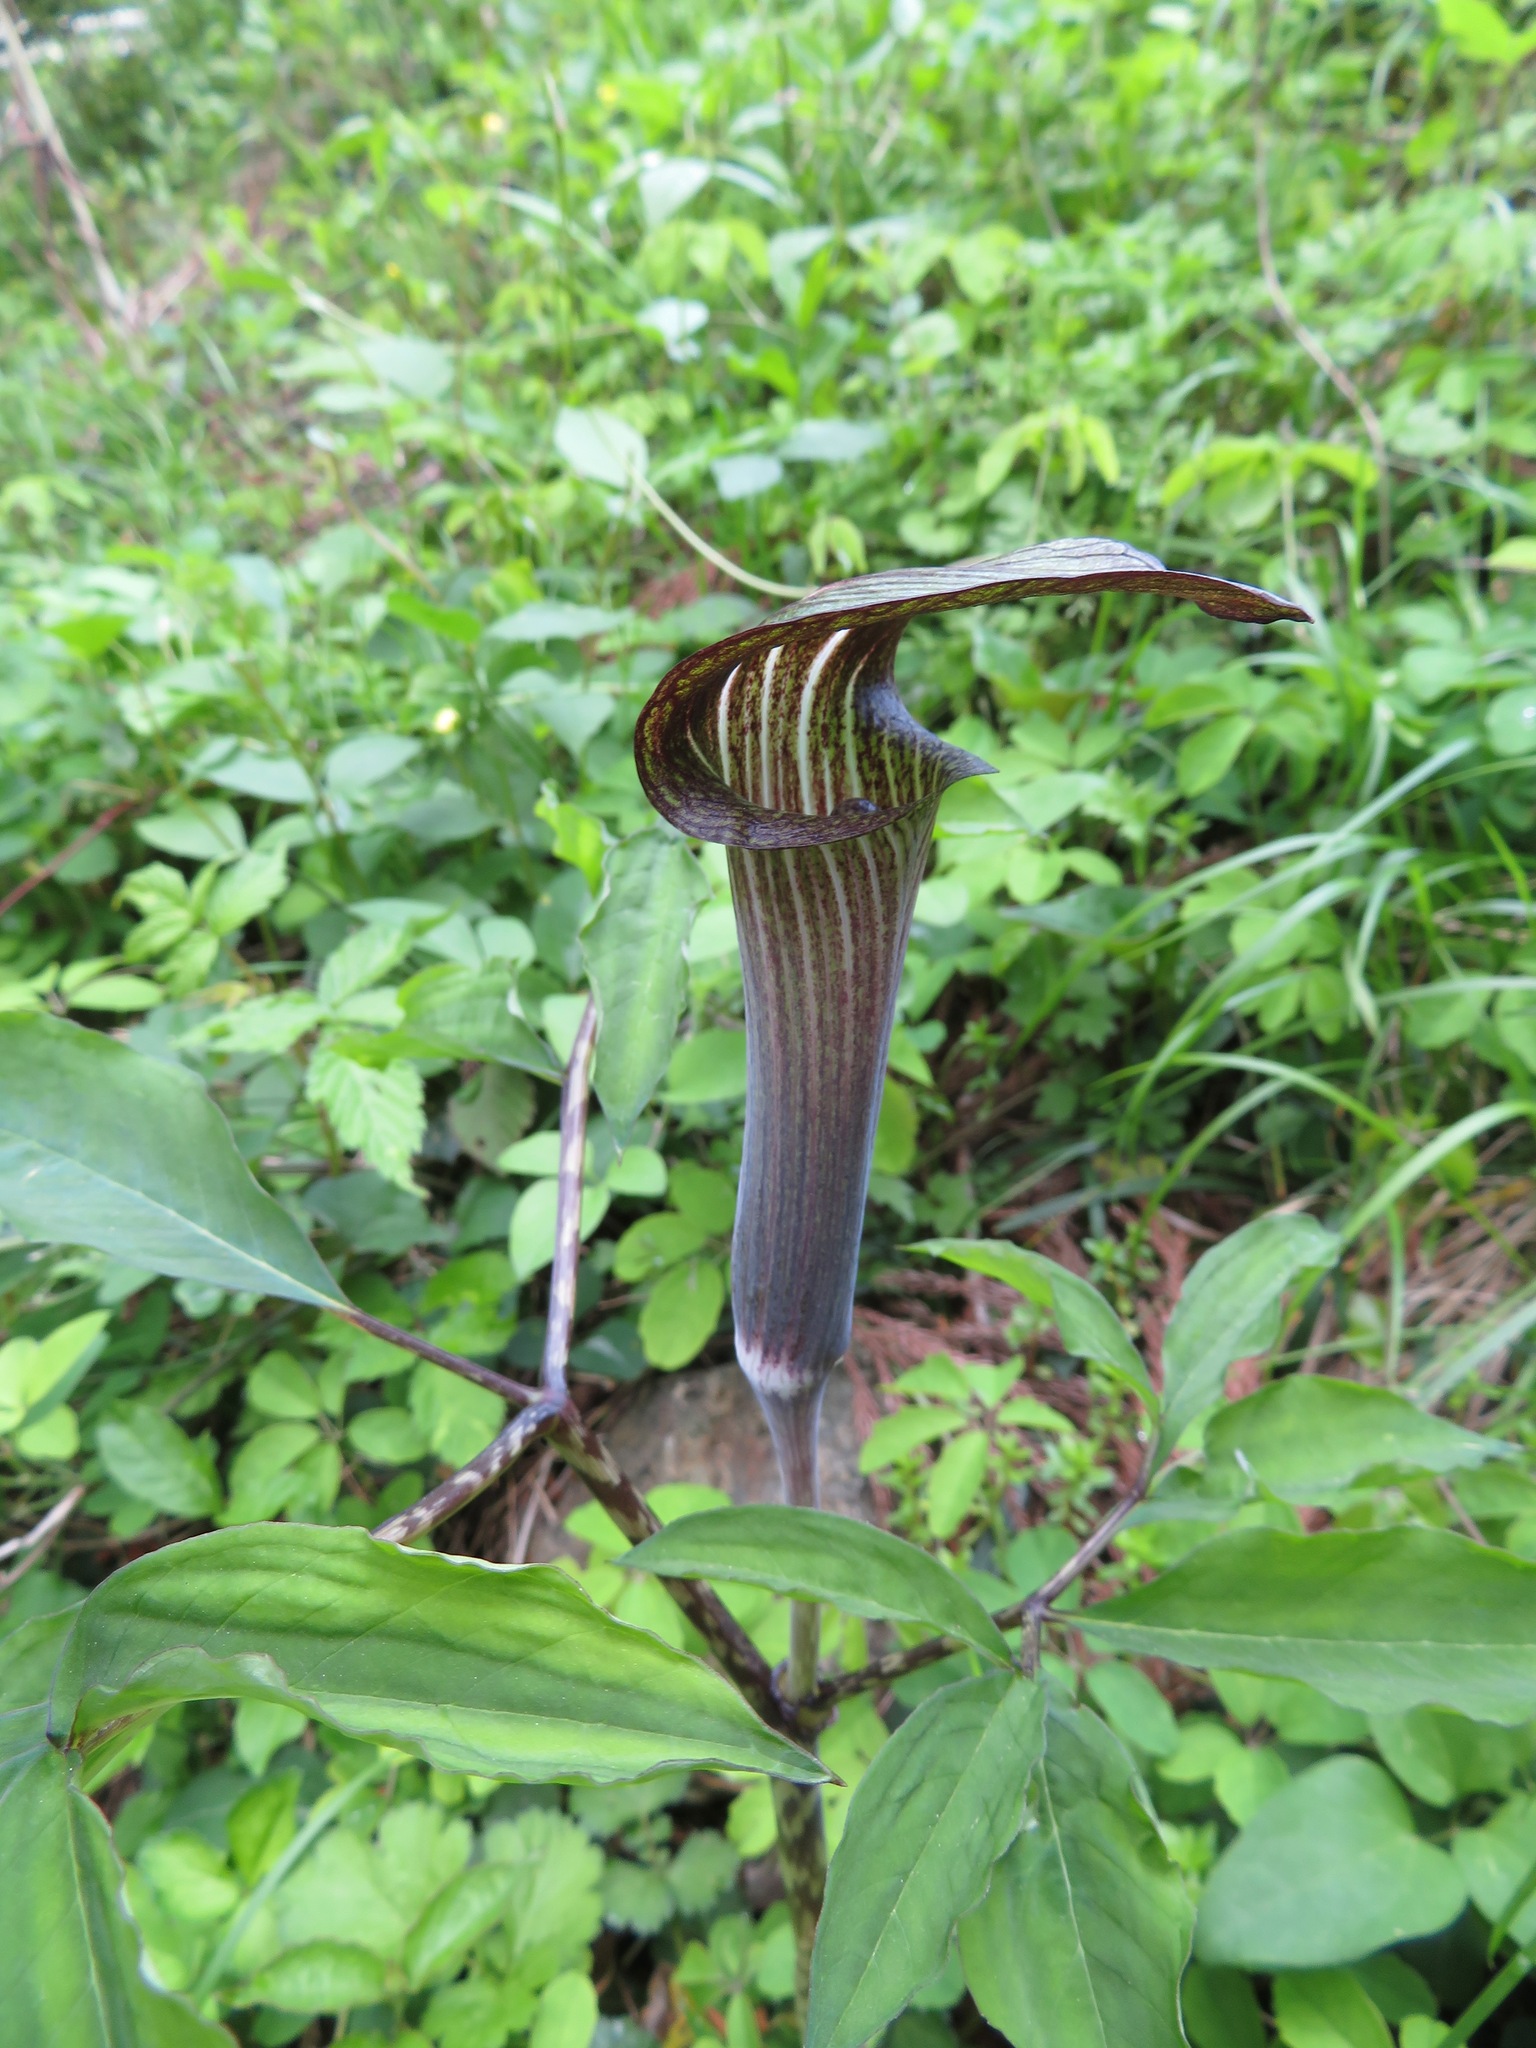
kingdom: Plantae
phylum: Tracheophyta
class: Liliopsida
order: Alismatales
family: Araceae
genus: Arisaema
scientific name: Arisaema serratum
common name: Japanese arisaema
